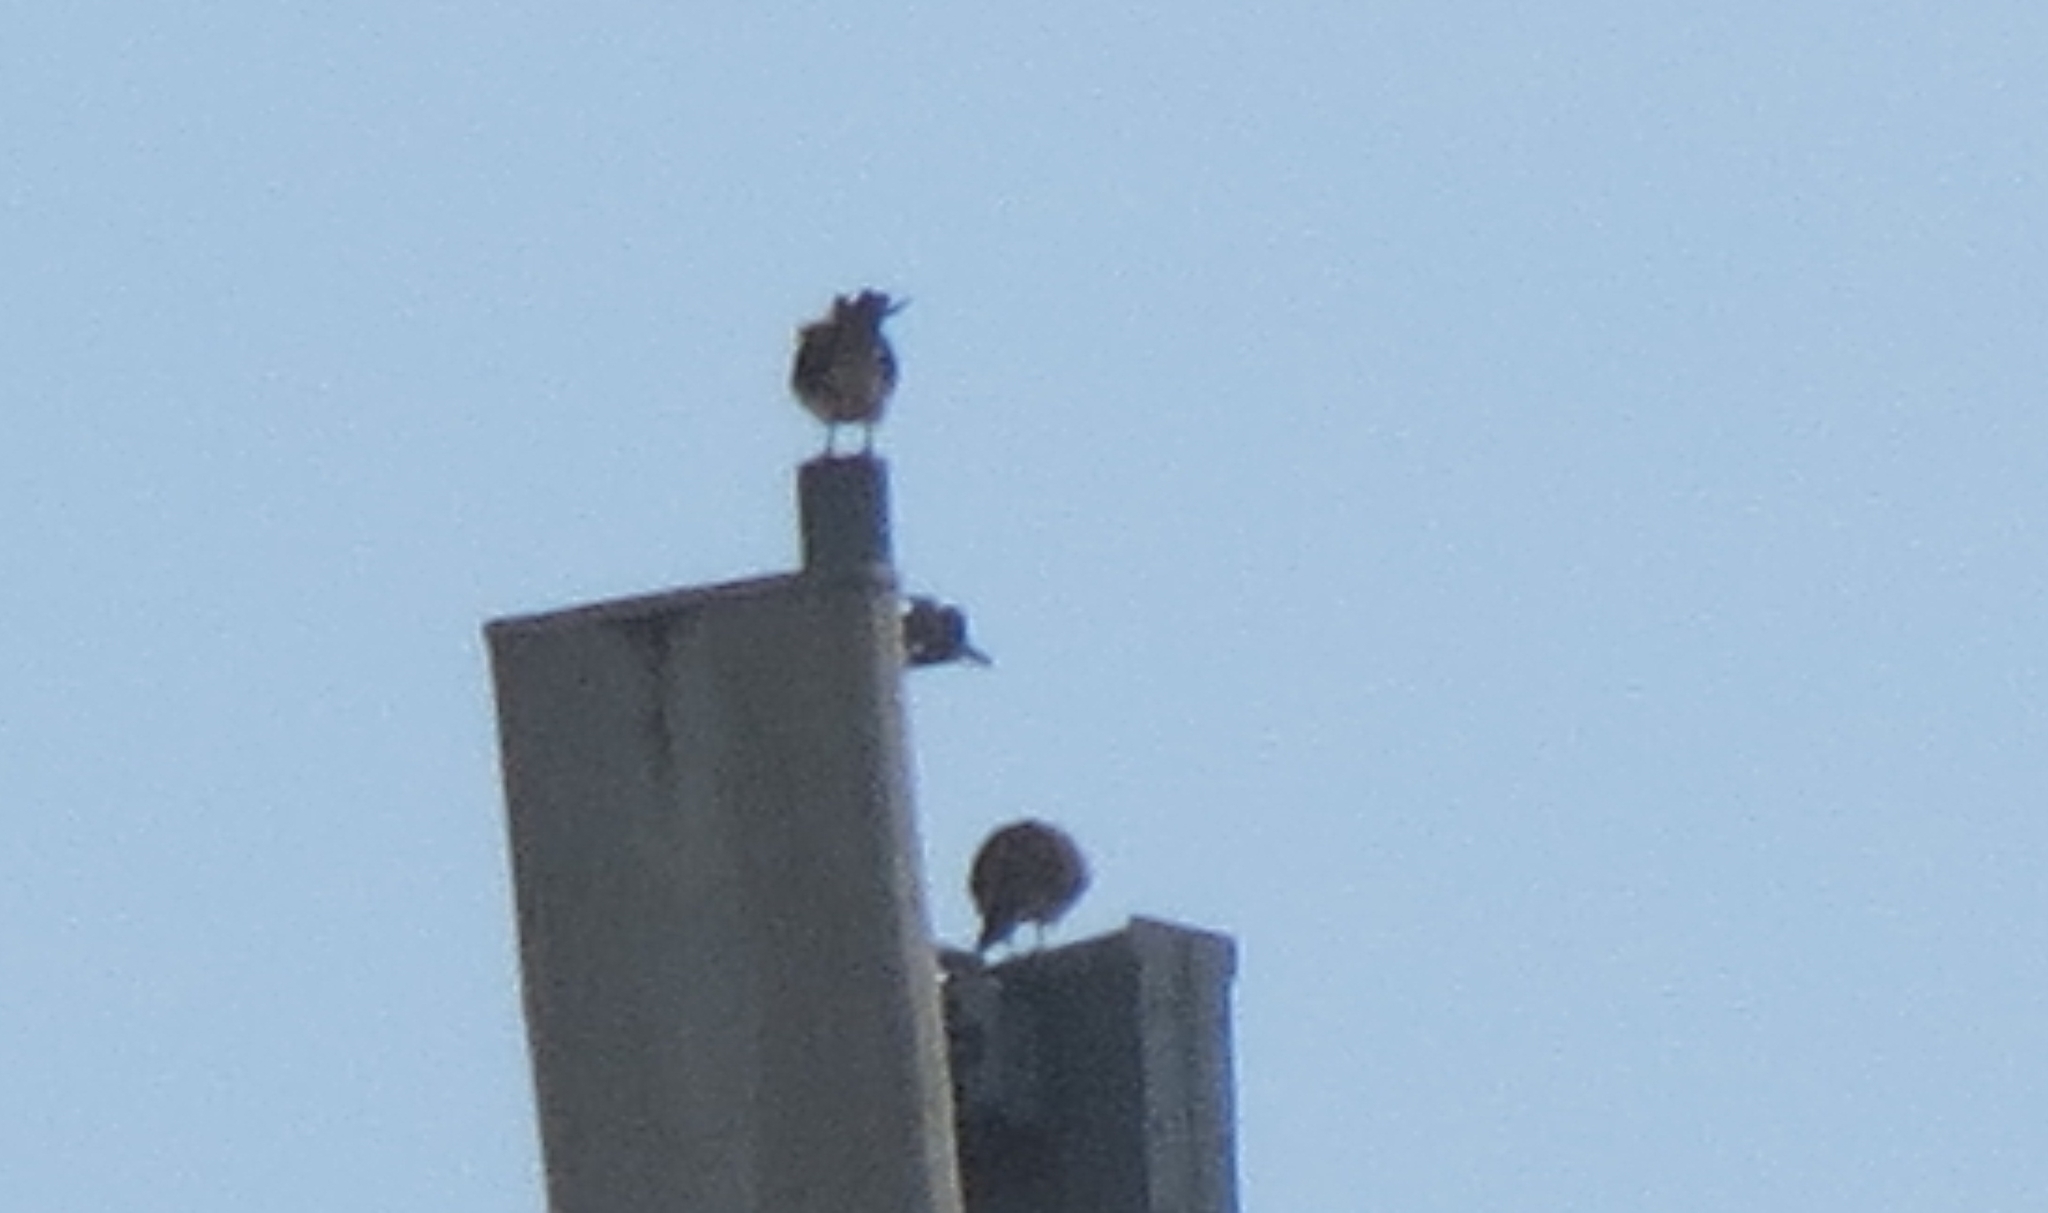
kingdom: Animalia
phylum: Chordata
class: Aves
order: Falconiformes
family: Falconidae
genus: Falco
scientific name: Falco sparverius
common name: American kestrel
